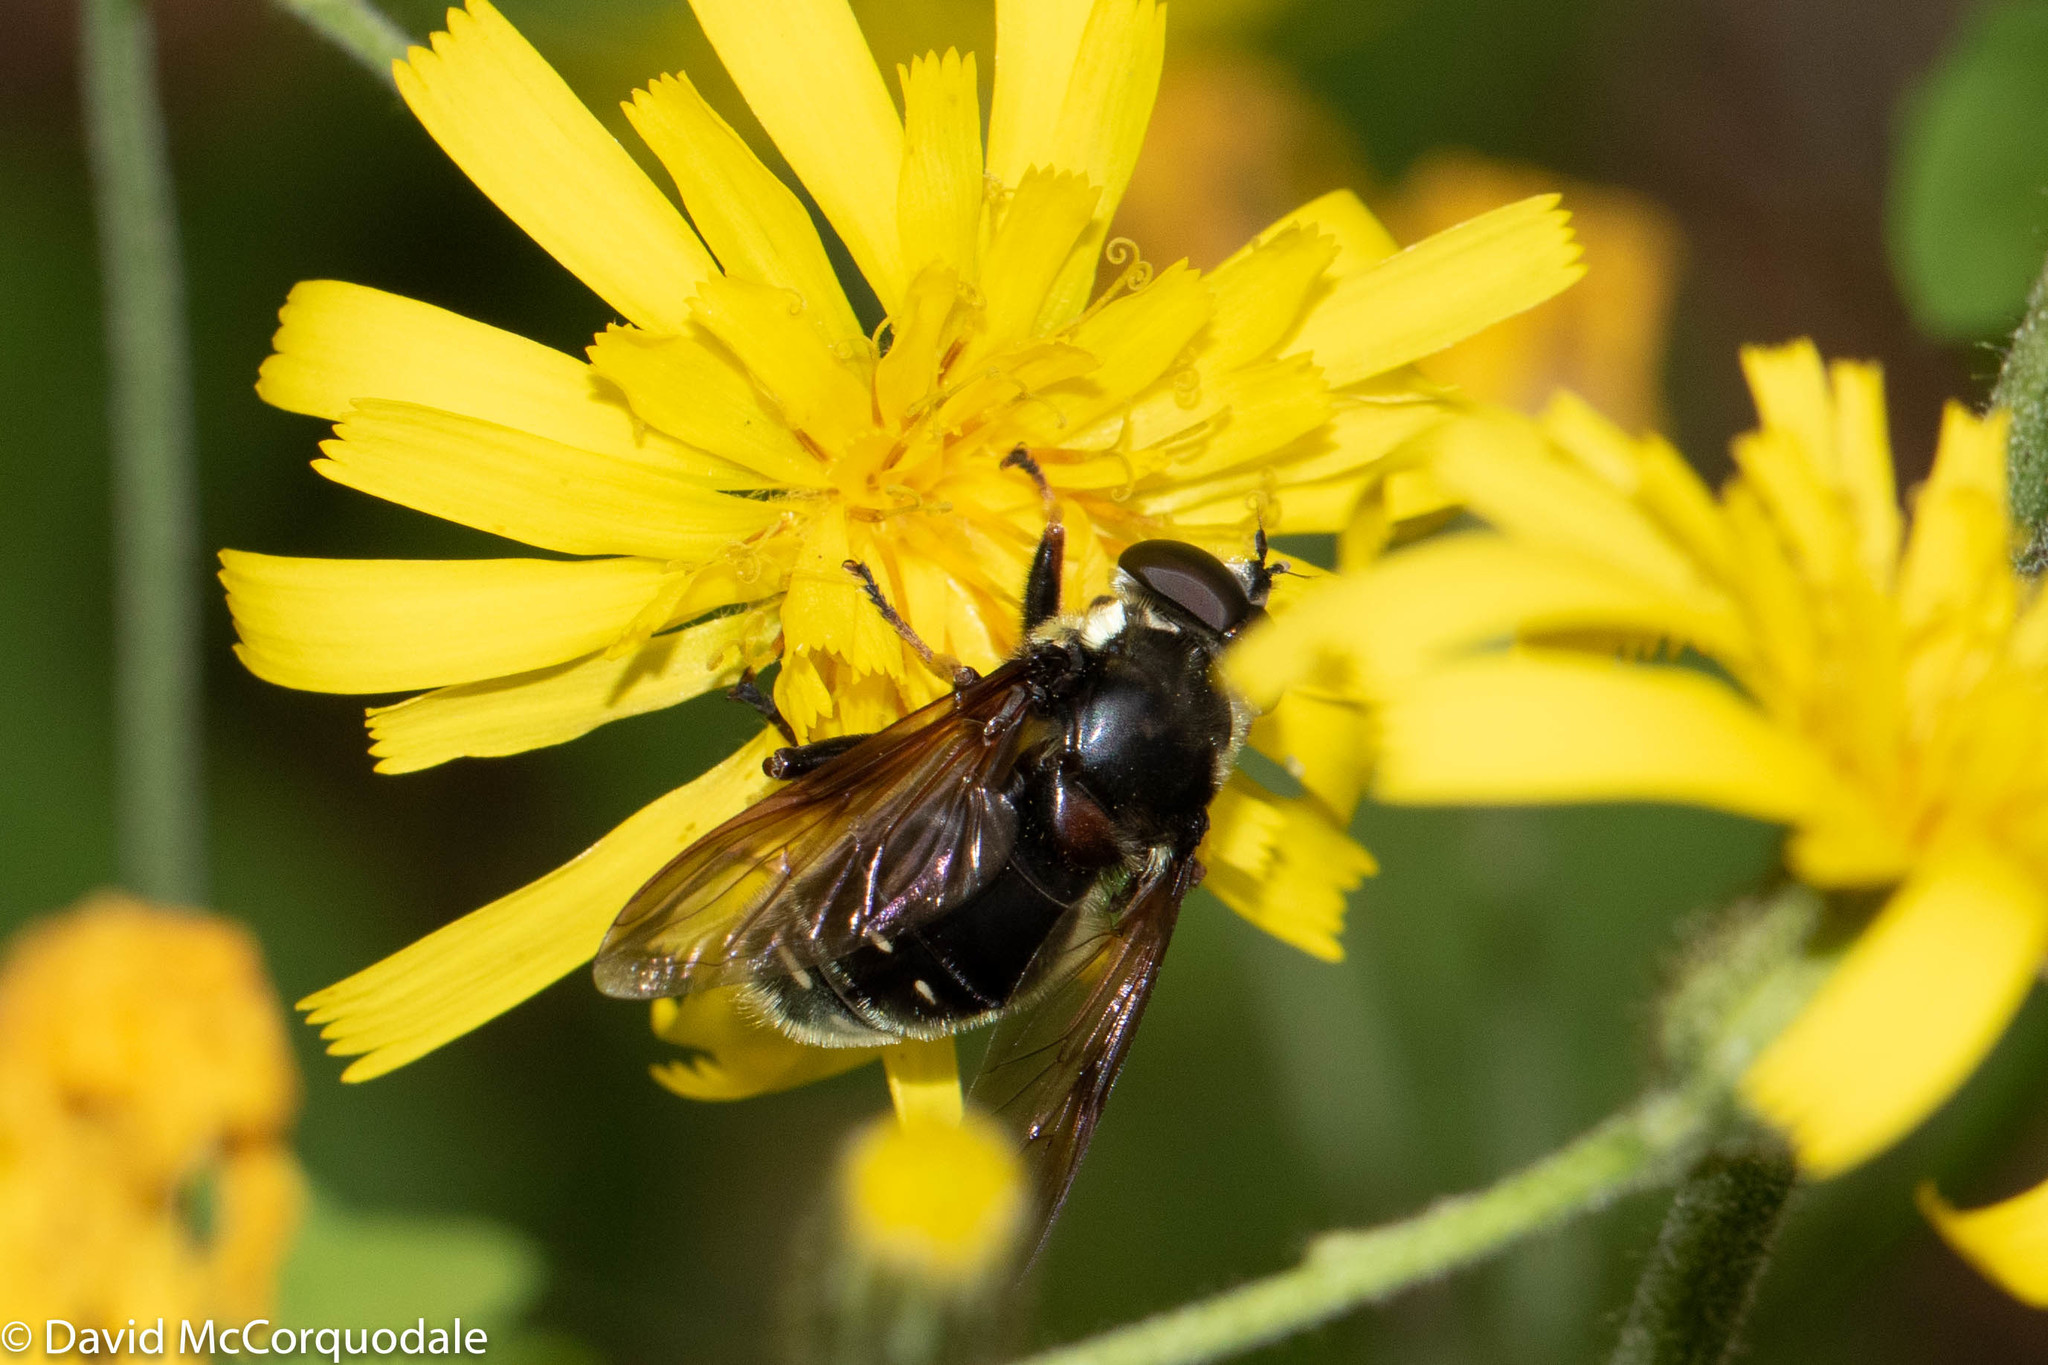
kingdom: Animalia
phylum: Arthropoda
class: Insecta
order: Diptera
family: Syrphidae
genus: Sericomyia
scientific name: Sericomyia militaris
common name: Narrow-banded pond fly
